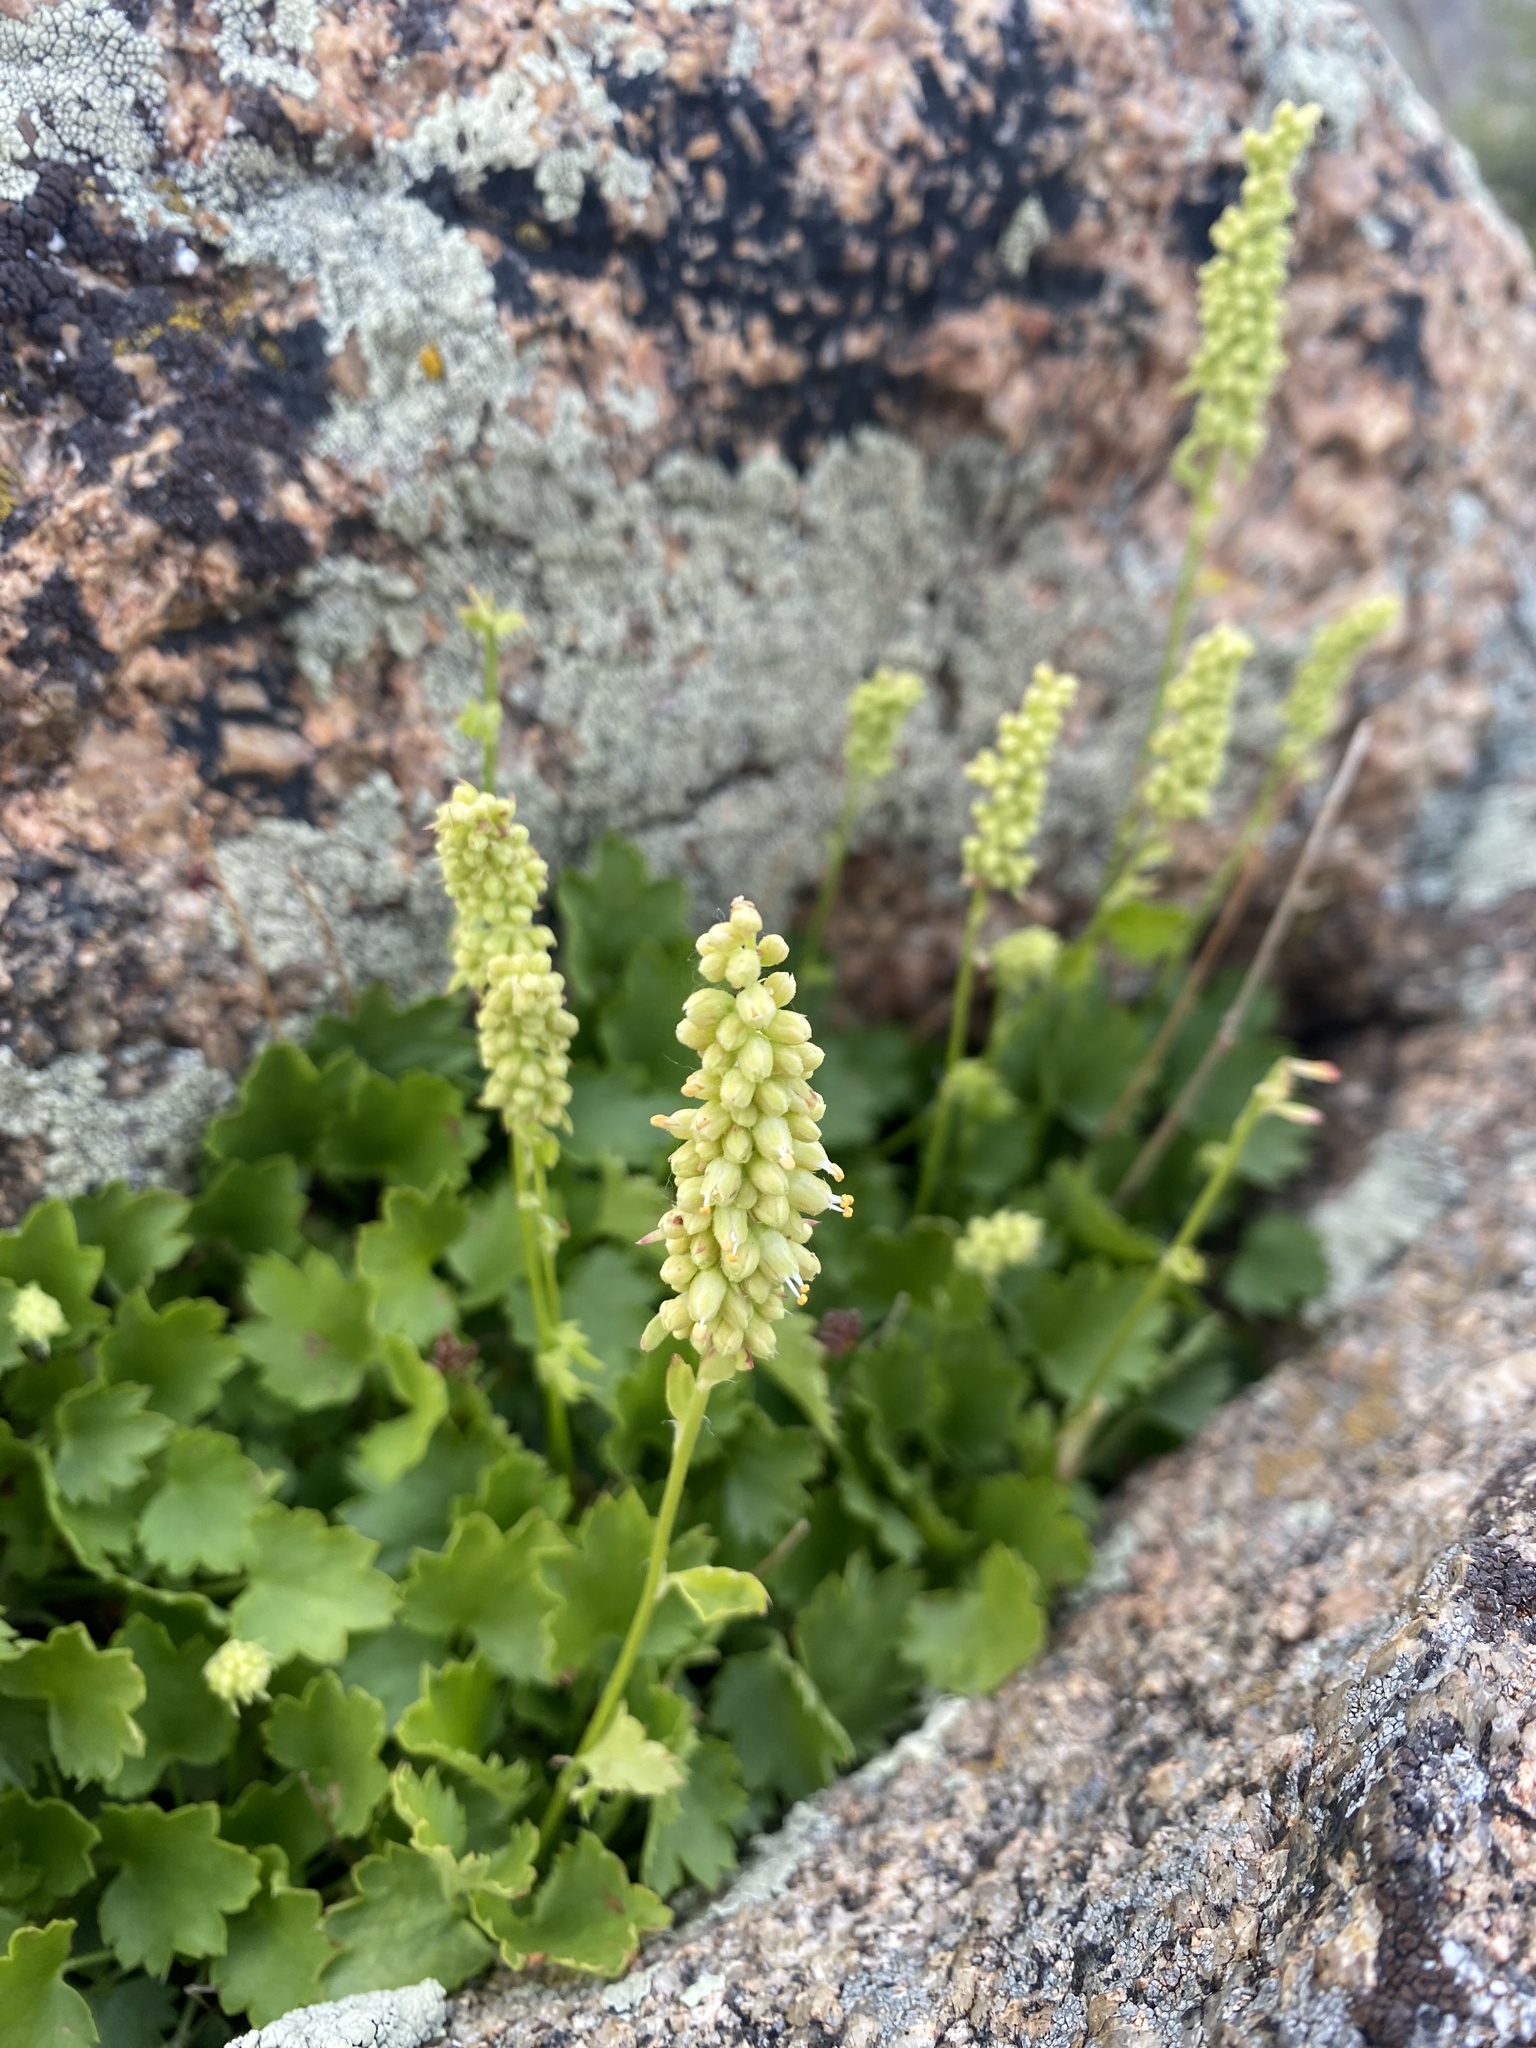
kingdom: Plantae
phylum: Tracheophyta
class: Magnoliopsida
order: Saxifragales
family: Saxifragaceae
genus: Heuchera
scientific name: Heuchera bracteata
